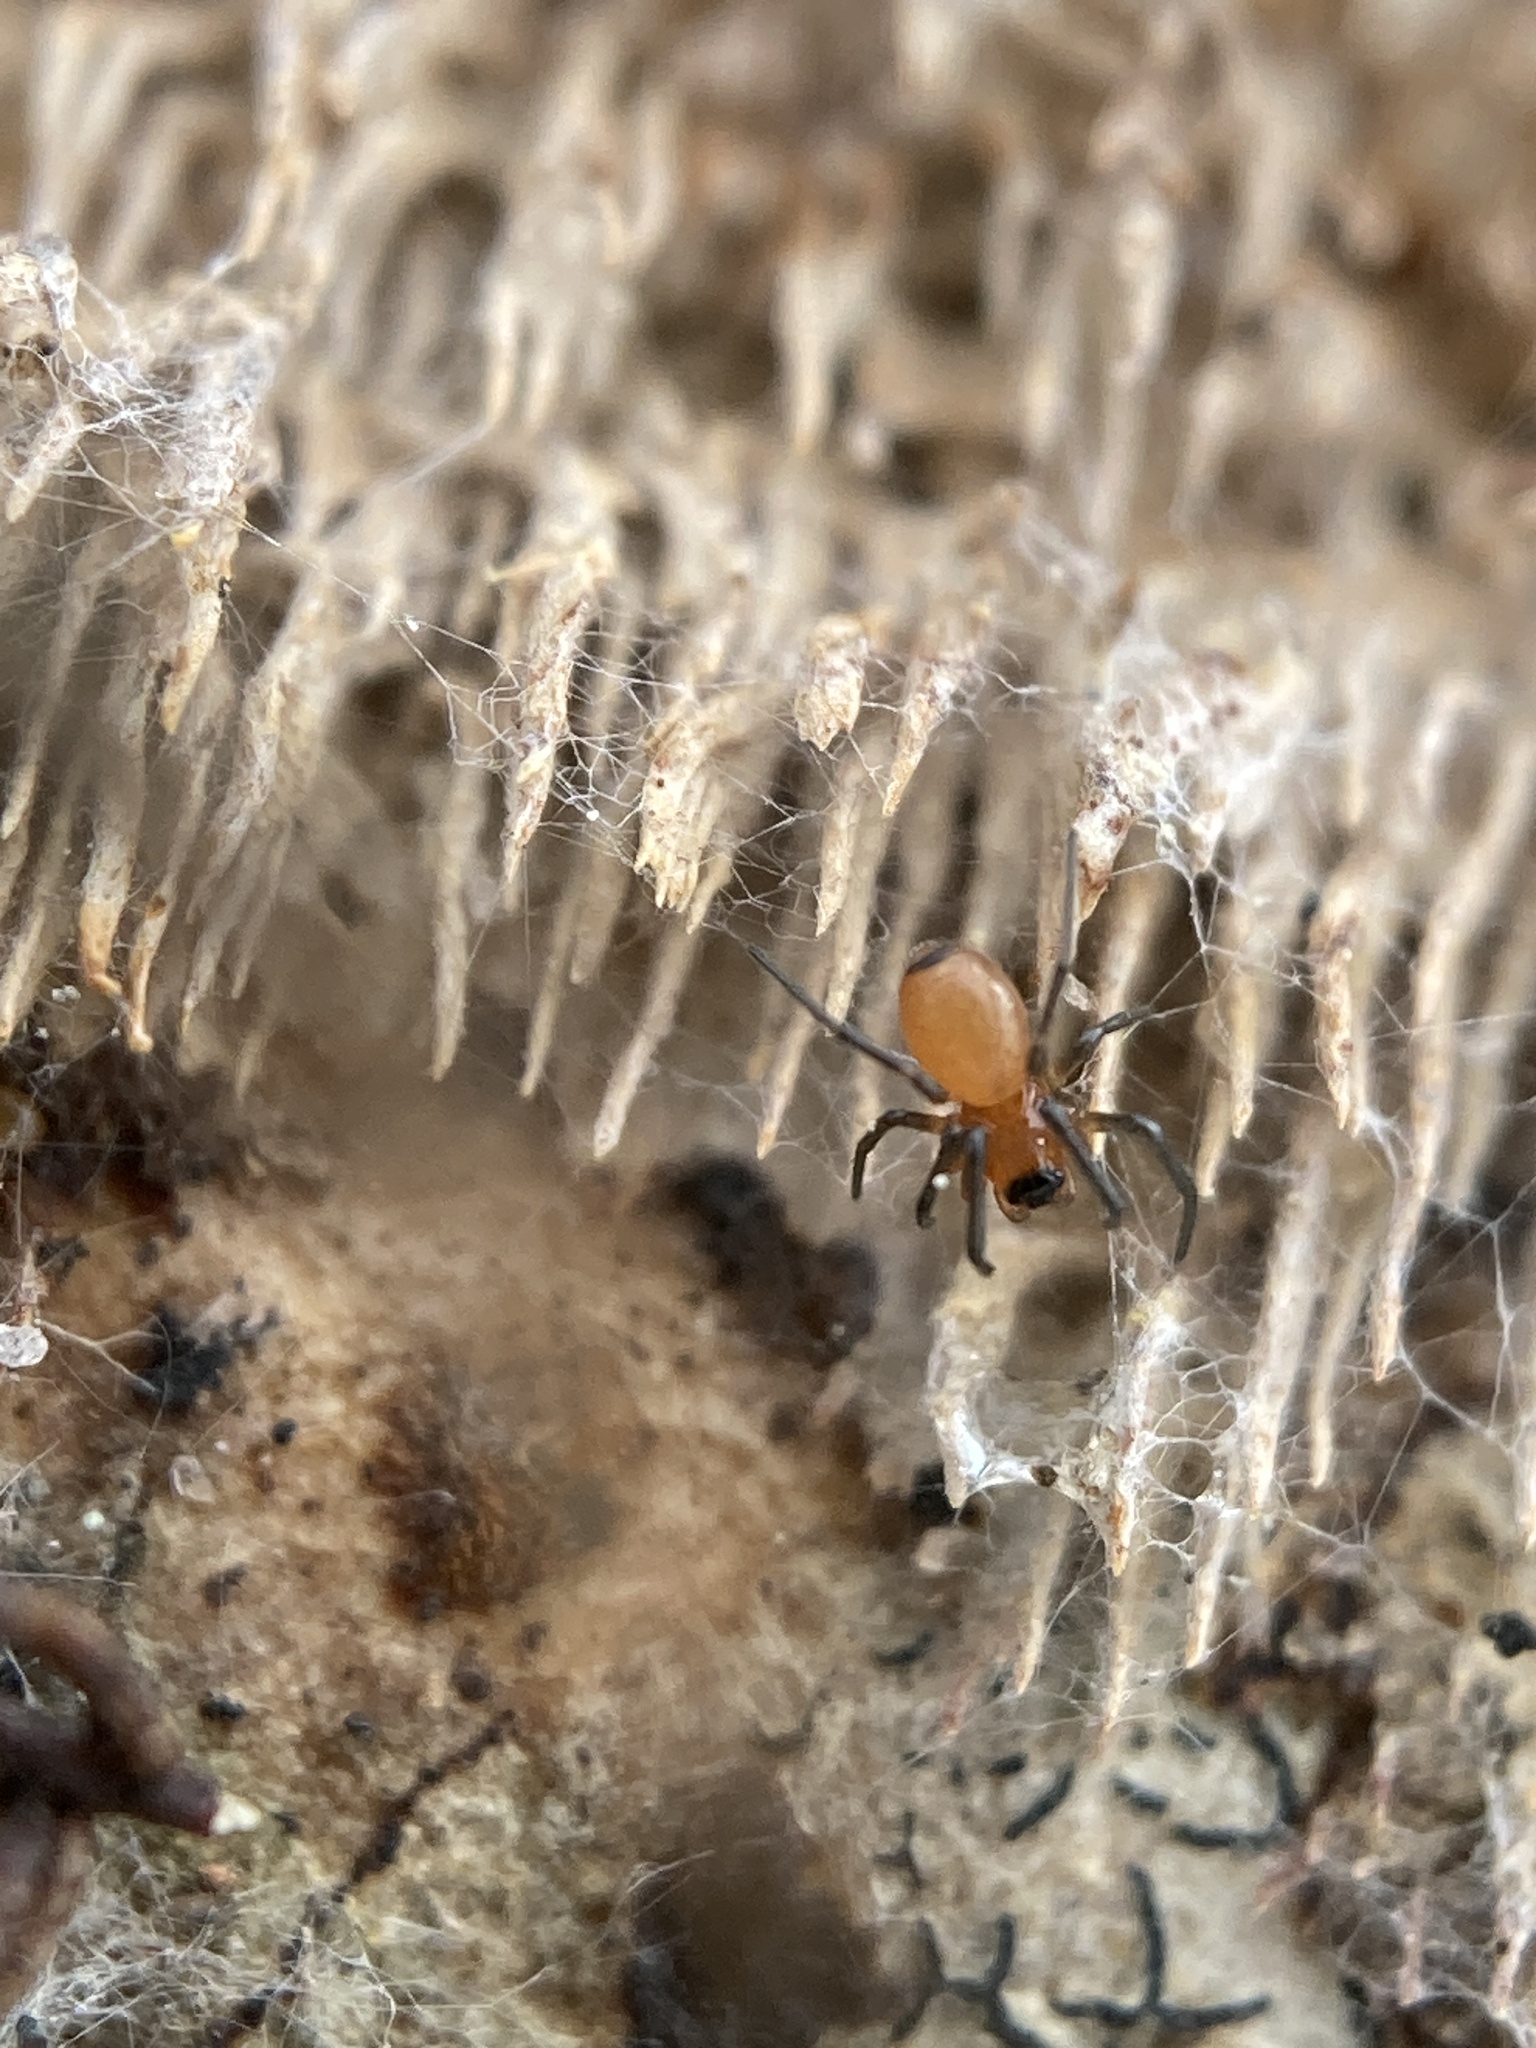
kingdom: Animalia
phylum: Arthropoda
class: Arachnida
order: Araneae
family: Linyphiidae
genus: Florinda
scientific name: Florinda coccinea
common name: Black-tailed red sheetweaver
